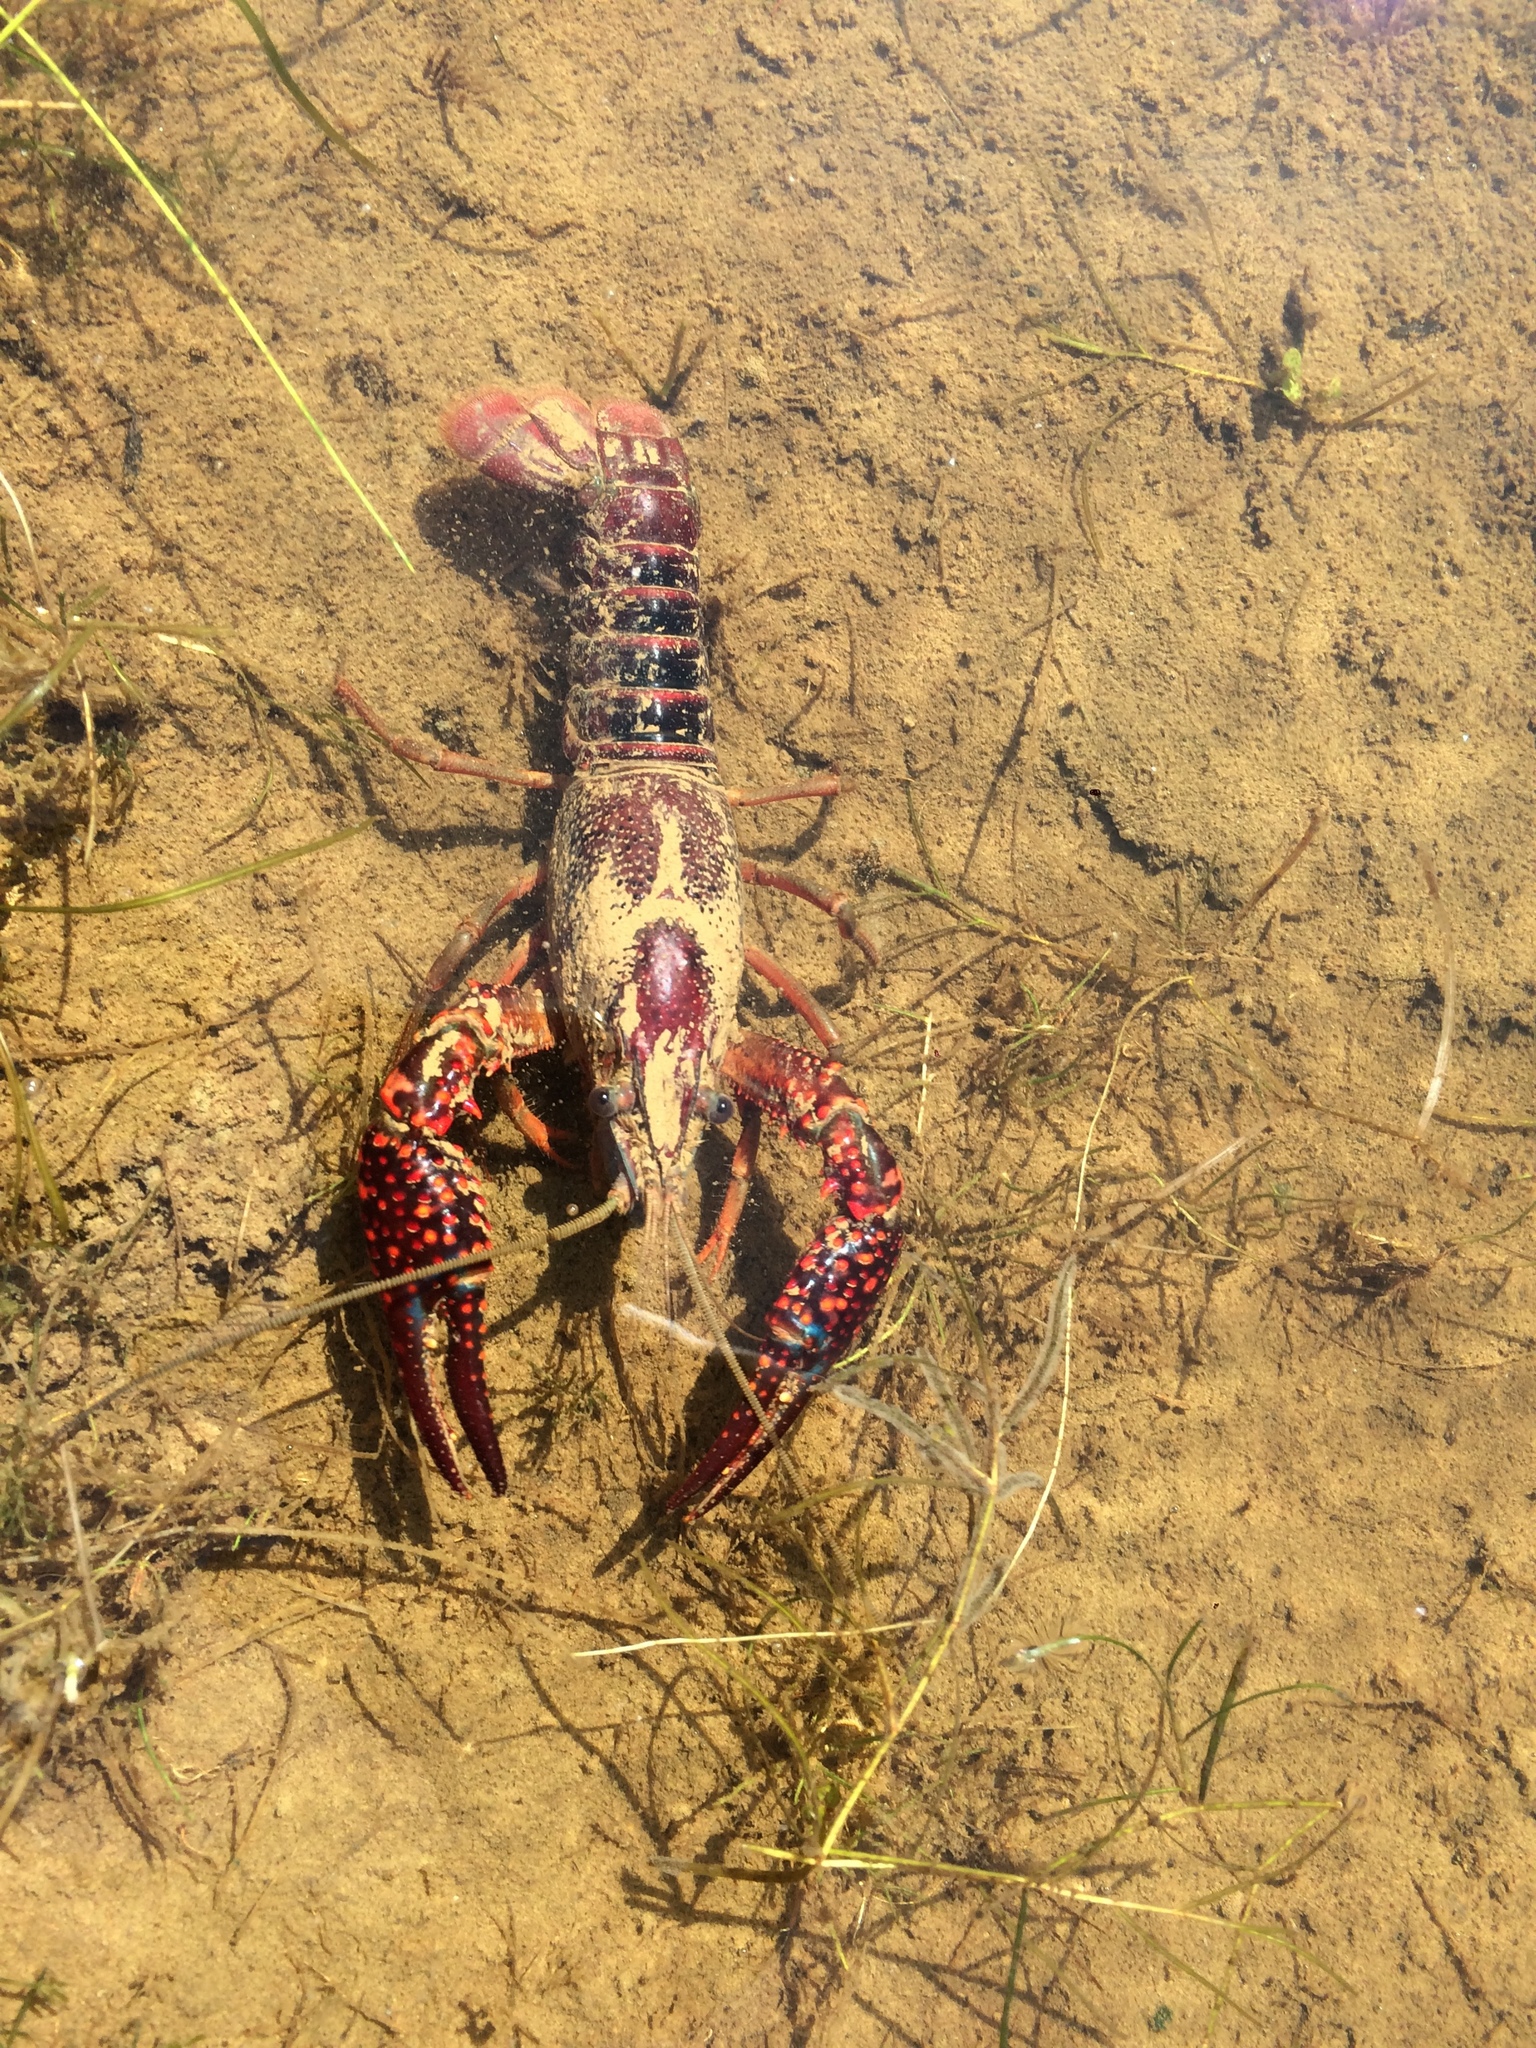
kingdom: Animalia
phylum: Arthropoda
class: Malacostraca
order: Decapoda
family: Cambaridae
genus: Procambarus
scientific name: Procambarus clarkii
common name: Red swamp crayfish
